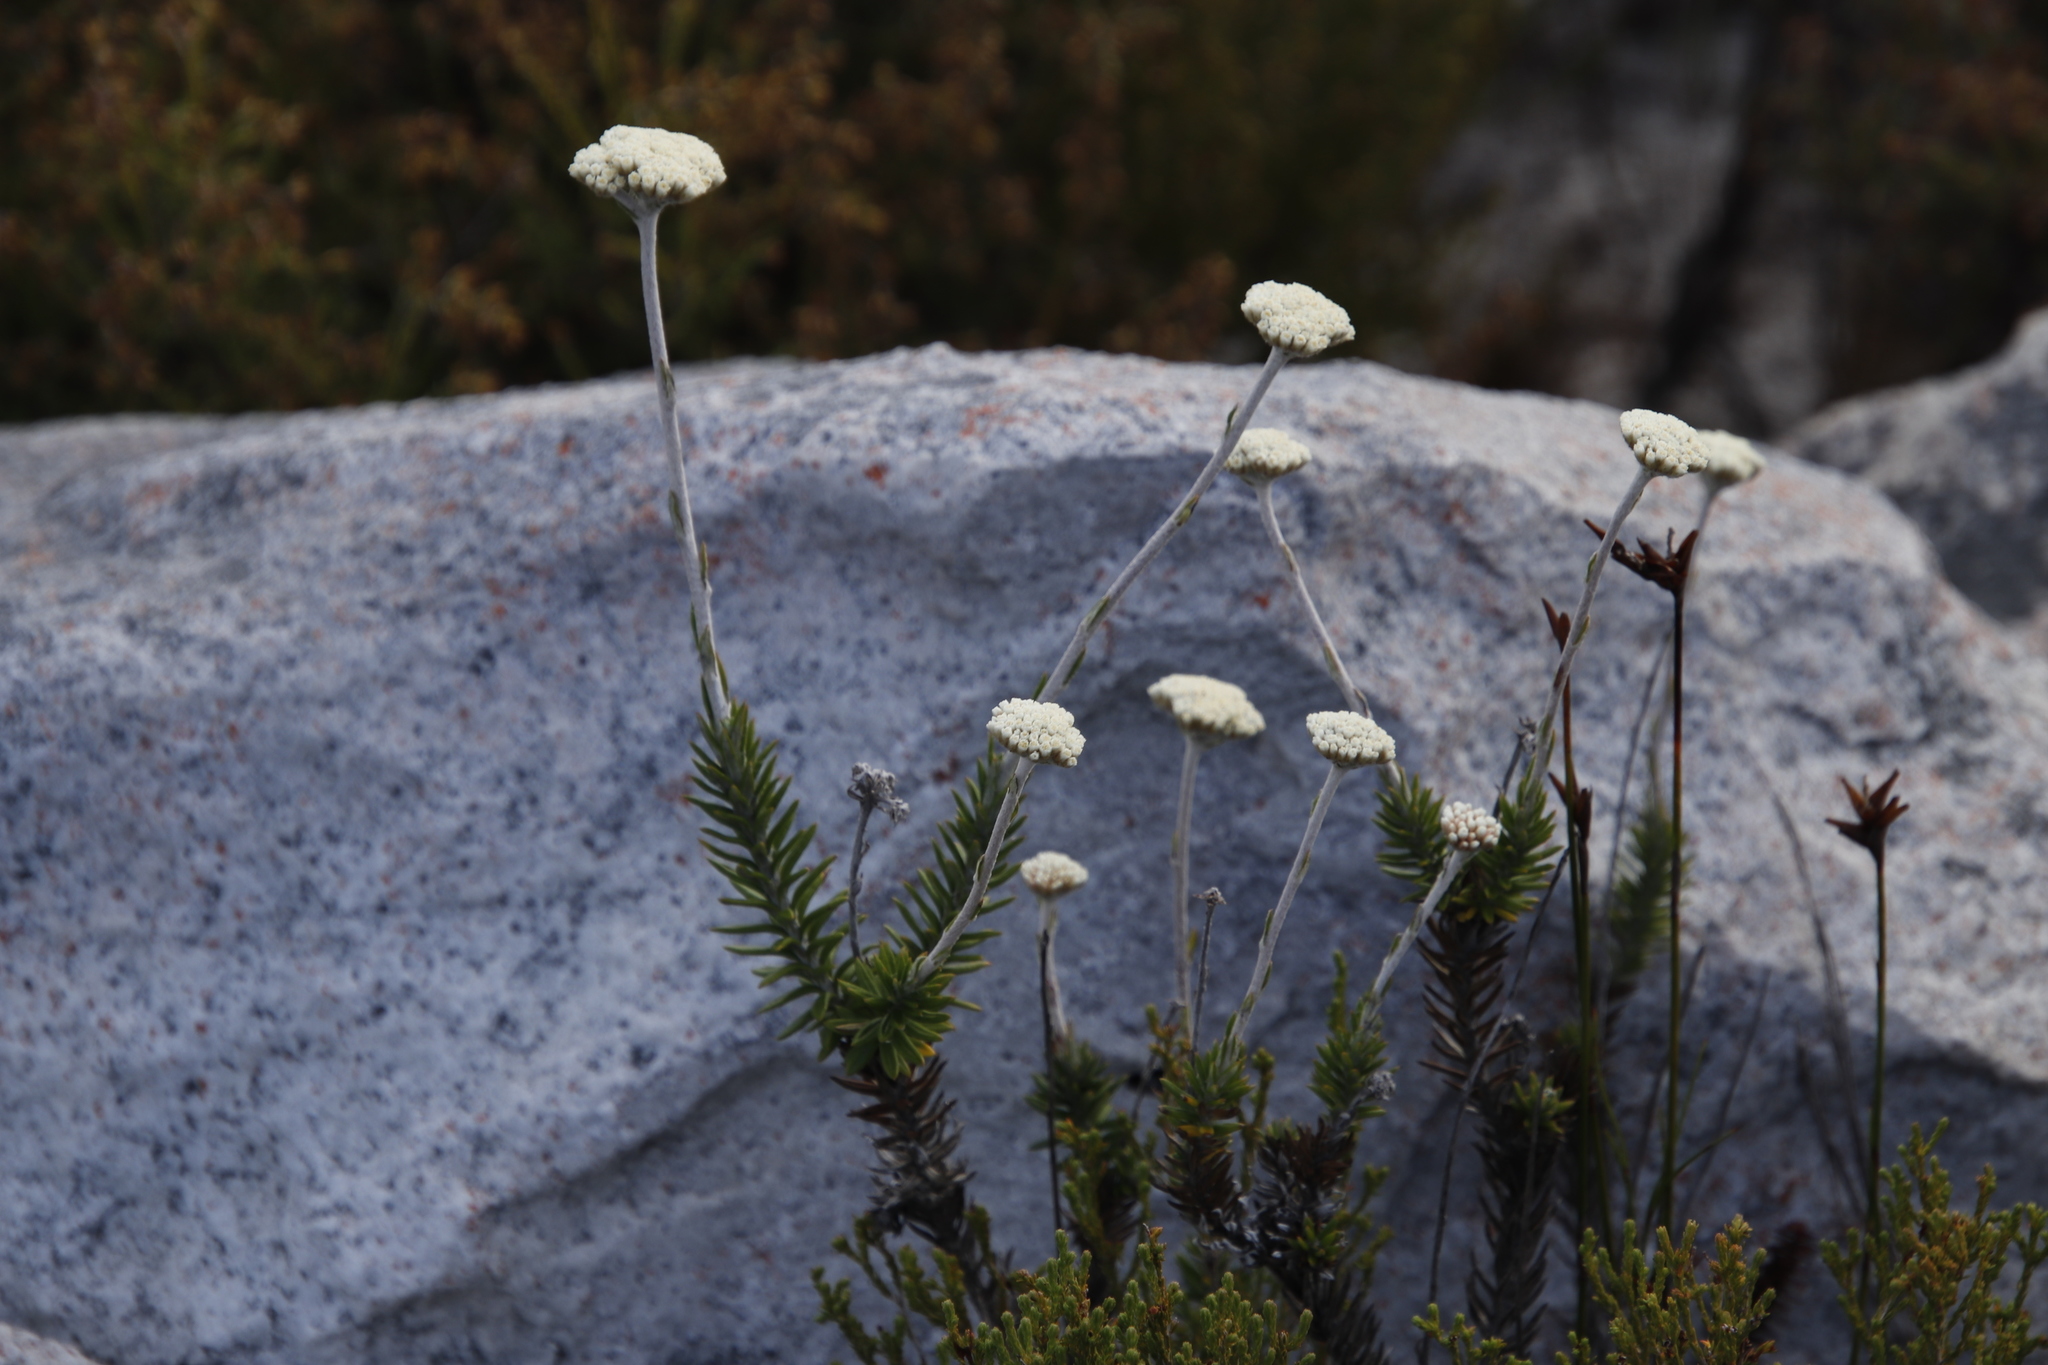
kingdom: Plantae
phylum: Tracheophyta
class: Magnoliopsida
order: Asterales
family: Asteraceae
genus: Anaxeton
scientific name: Anaxeton laeve
